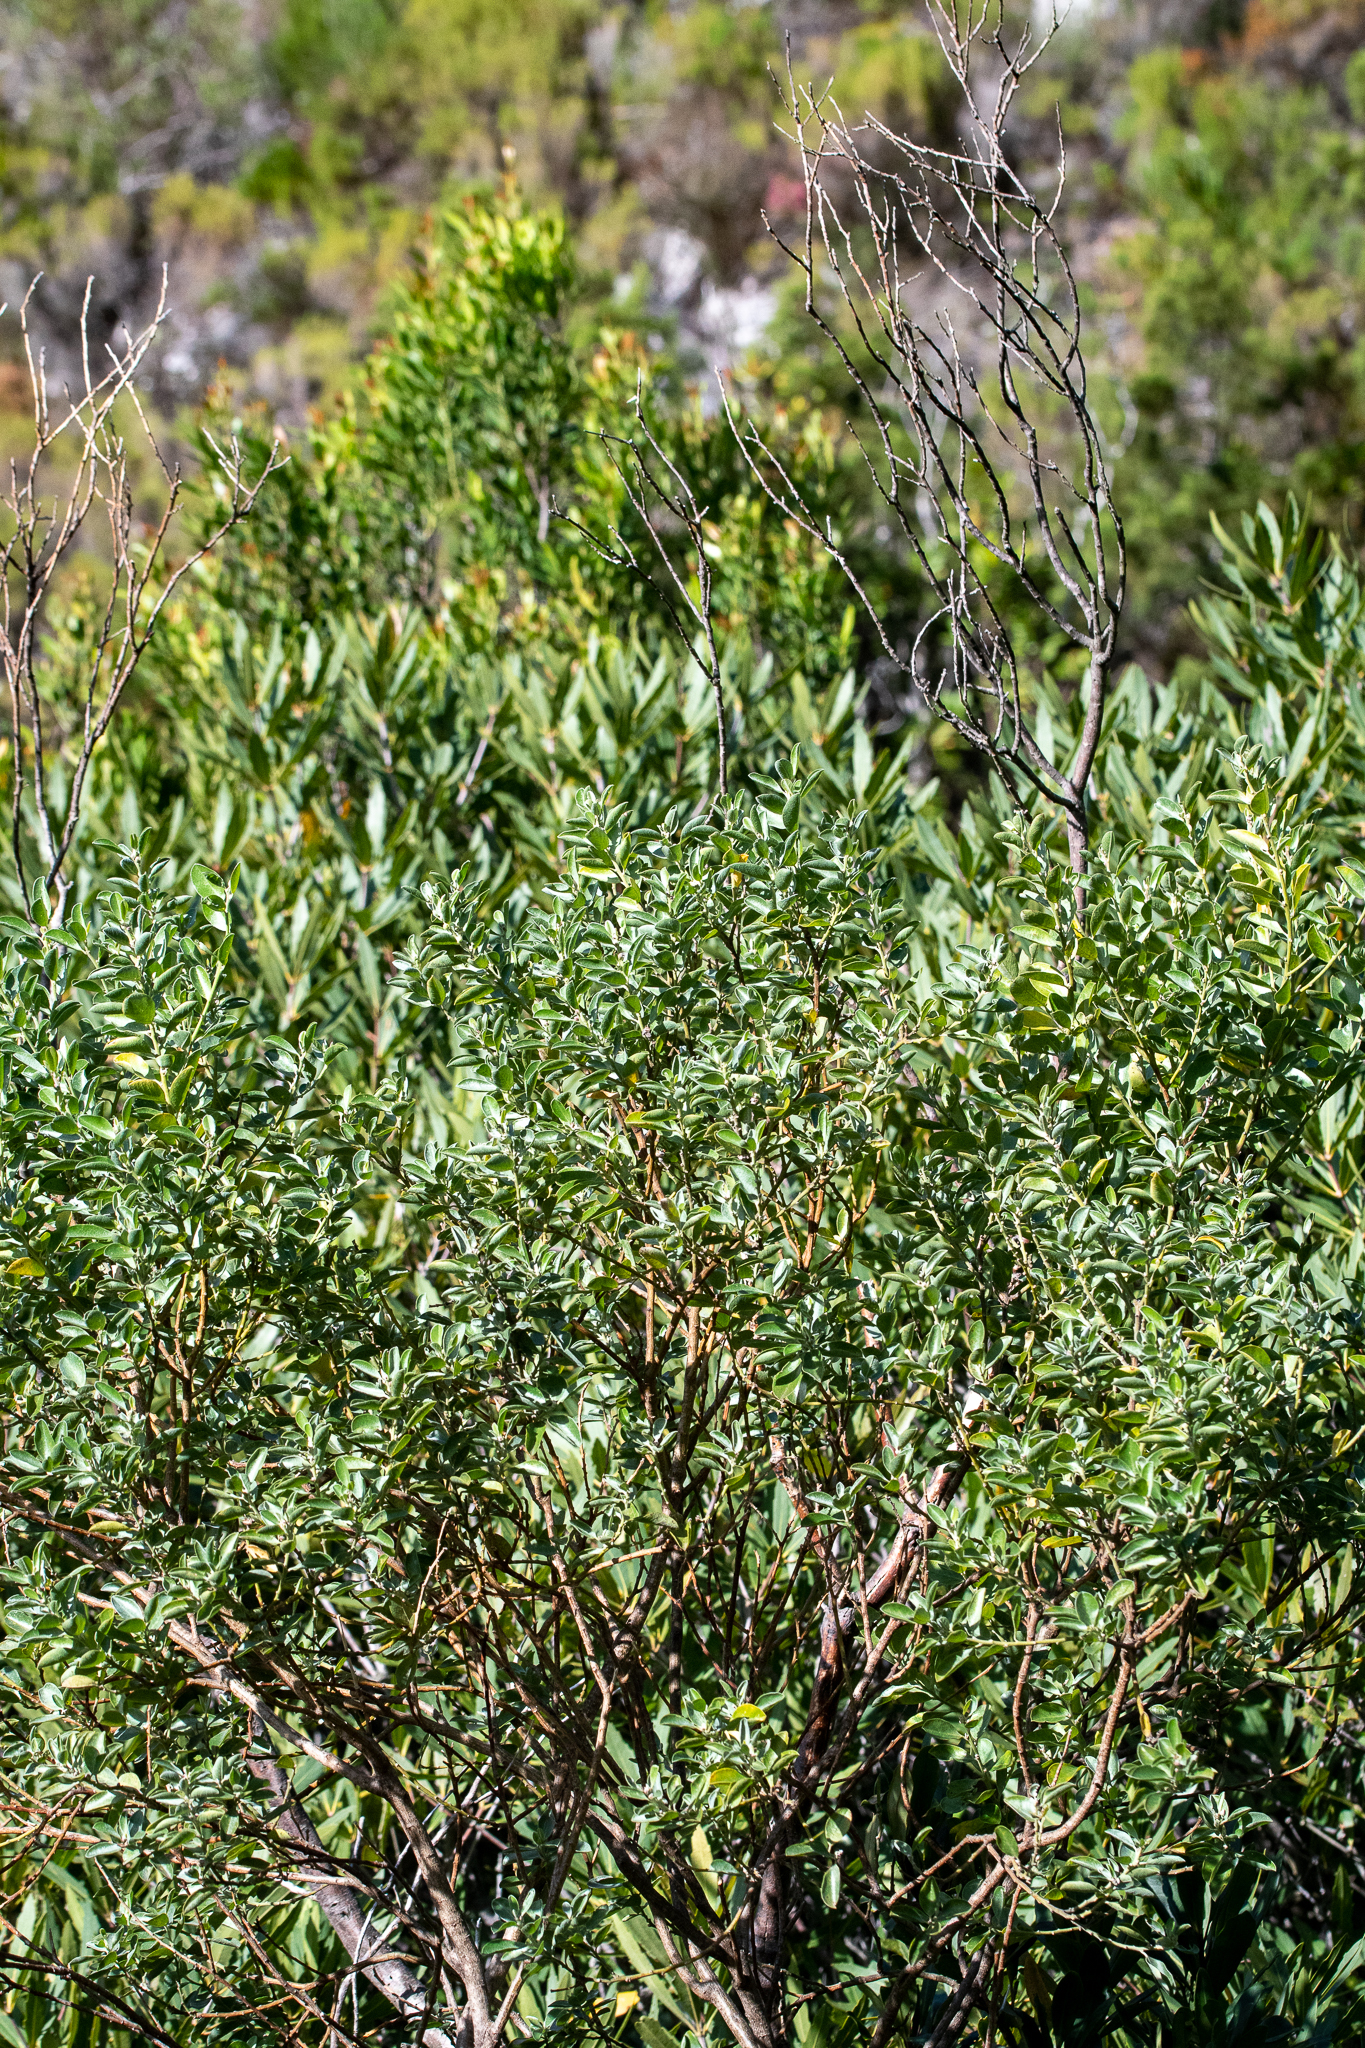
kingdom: Plantae
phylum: Tracheophyta
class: Magnoliopsida
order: Fabales
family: Fabaceae
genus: Podalyria
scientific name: Podalyria calyptrata
